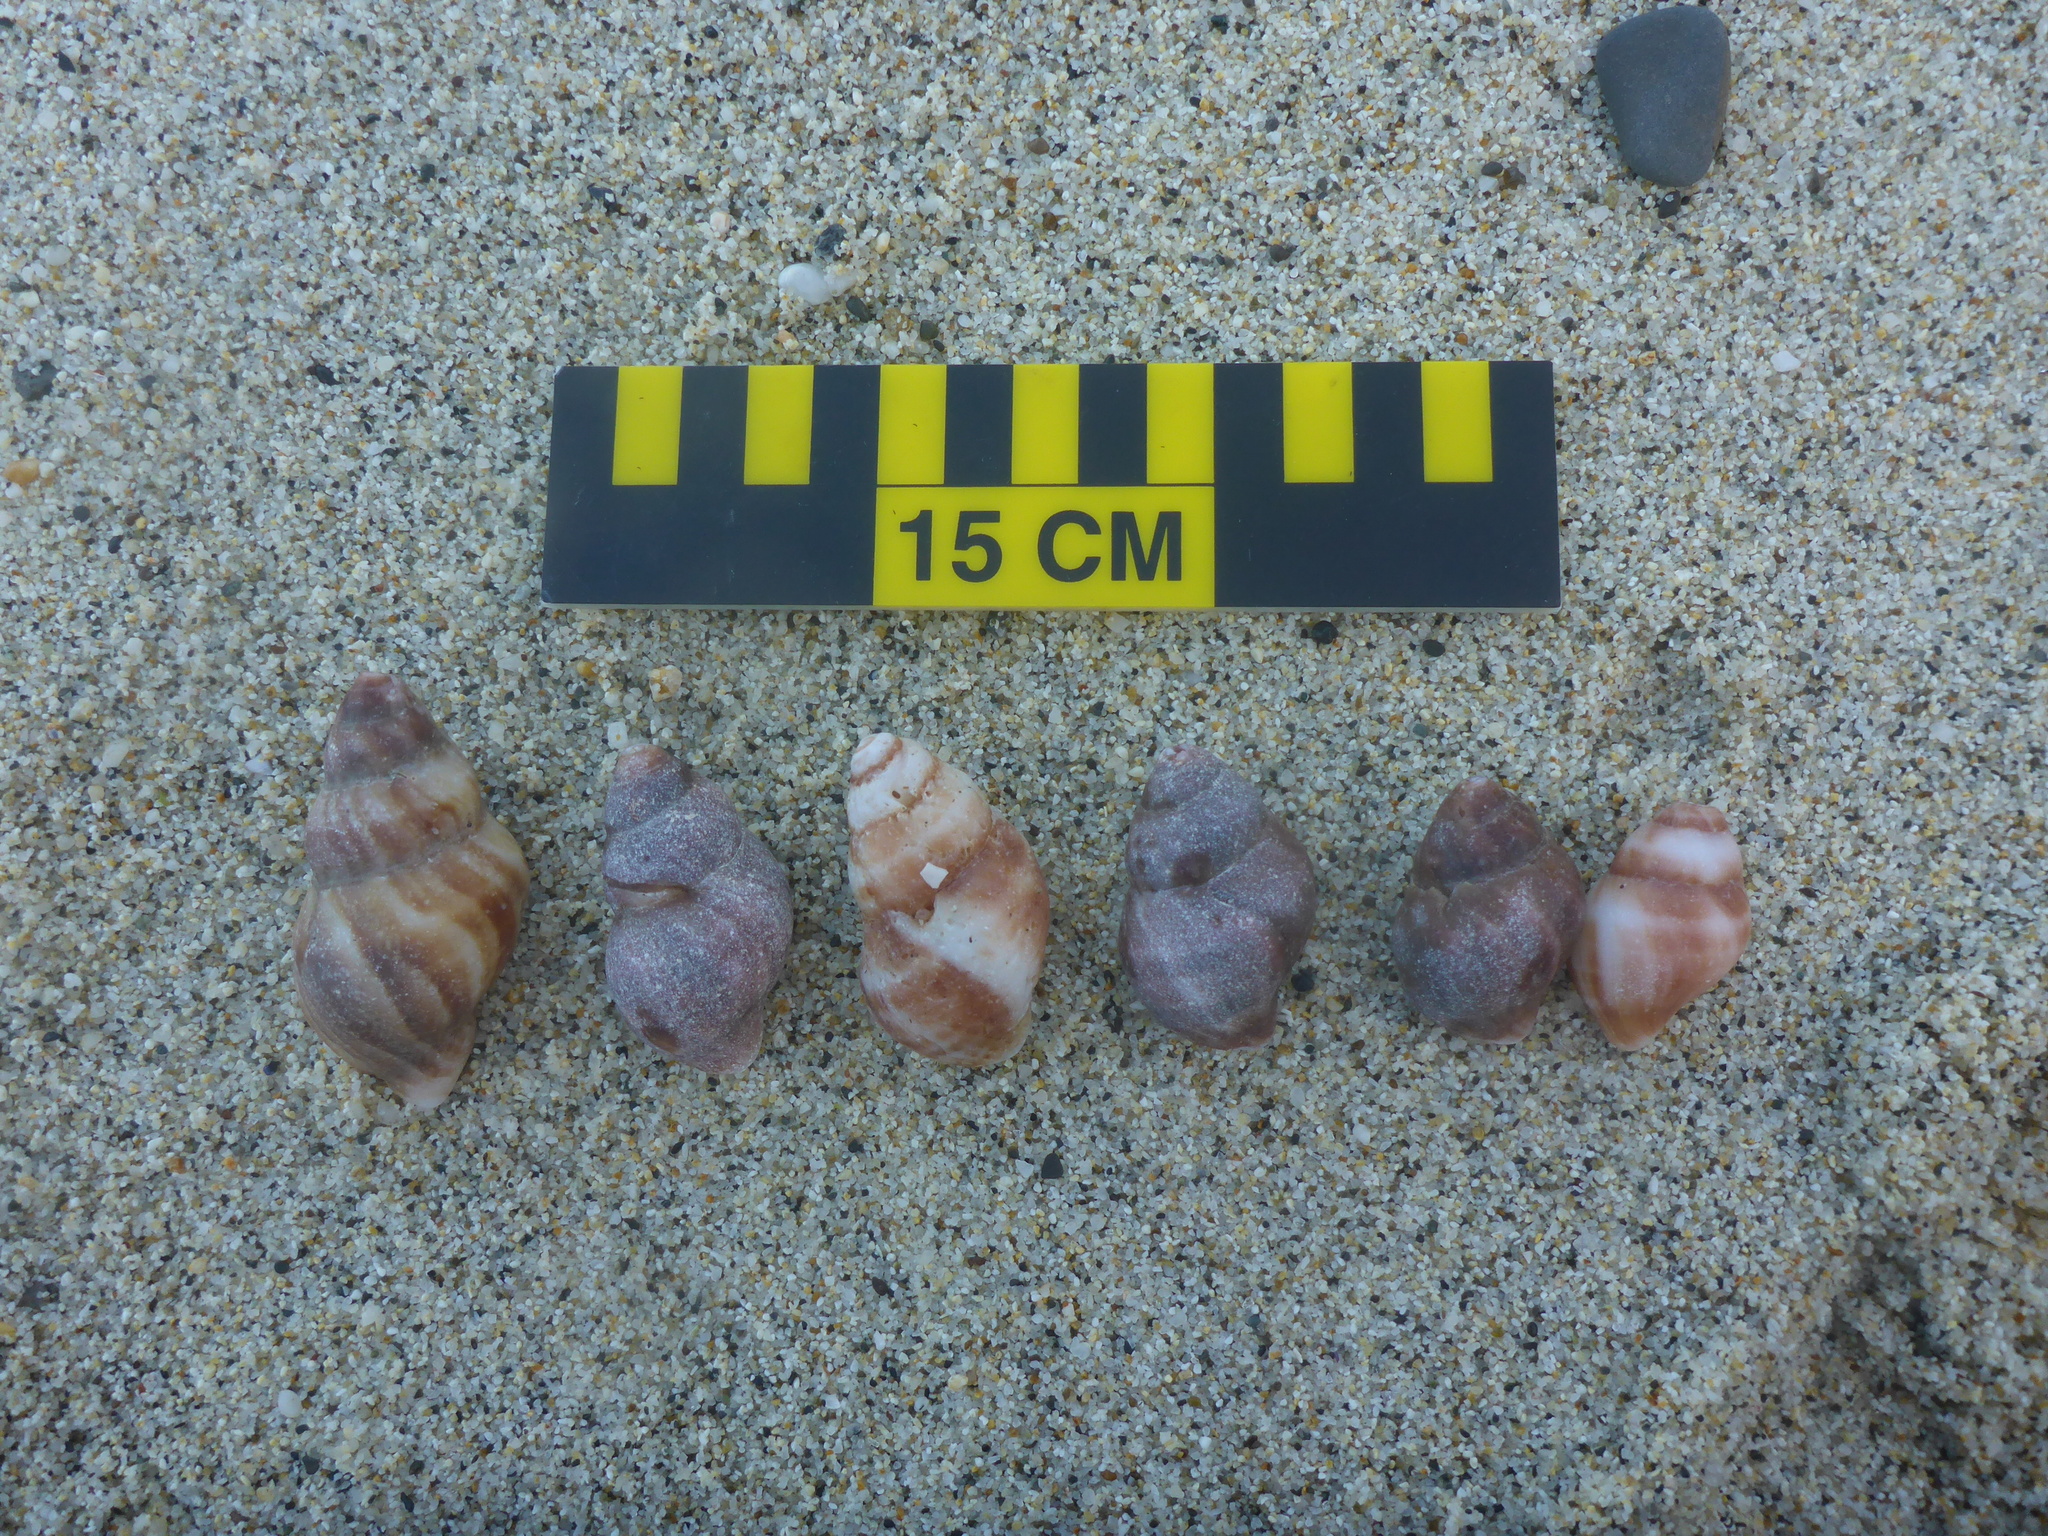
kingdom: Animalia
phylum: Mollusca
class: Gastropoda
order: Neogastropoda
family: Muricidae
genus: Nucella
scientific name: Nucella lamellosa
